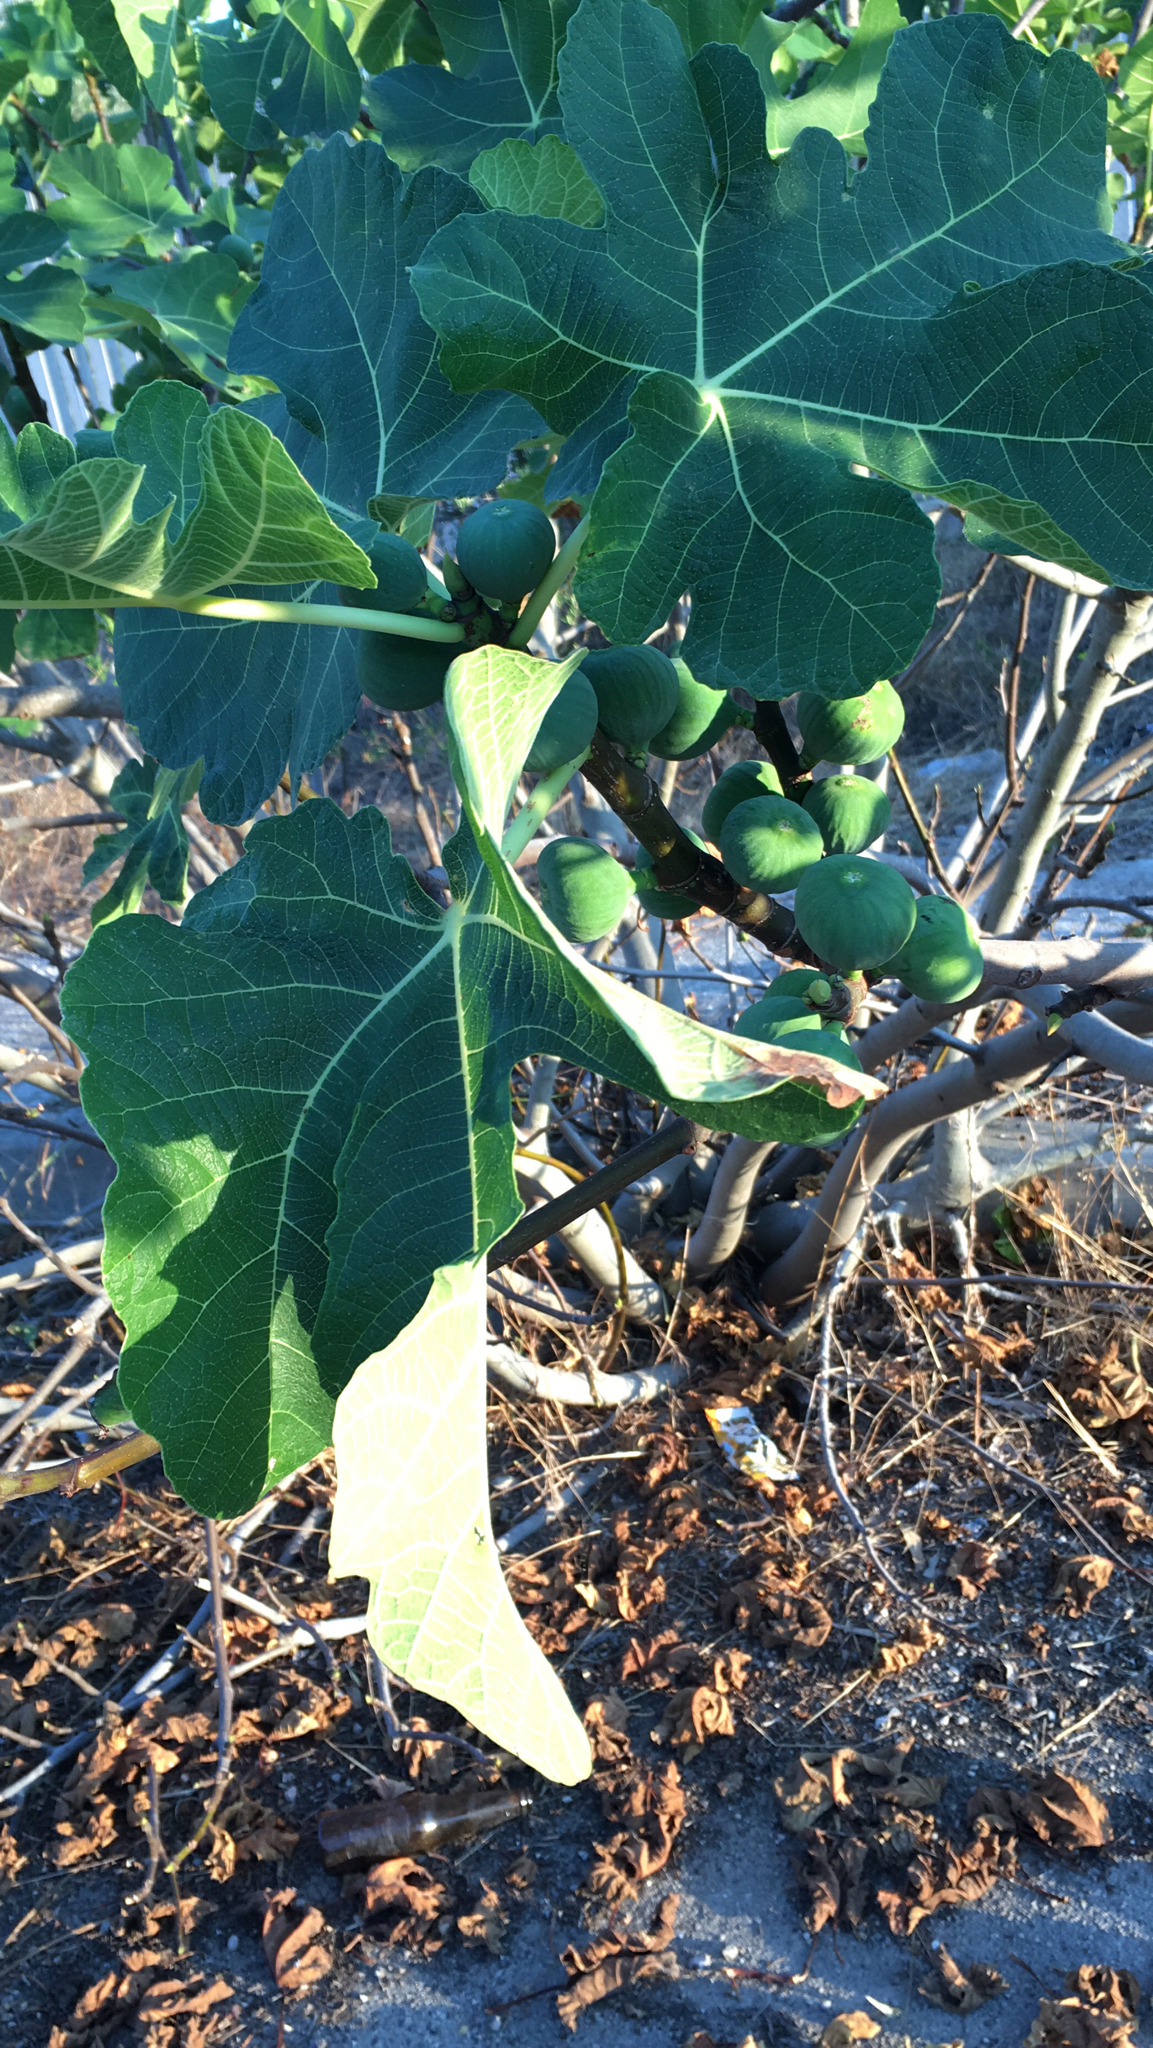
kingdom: Plantae
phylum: Tracheophyta
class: Magnoliopsida
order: Rosales
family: Moraceae
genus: Ficus
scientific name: Ficus carica
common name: Fig
